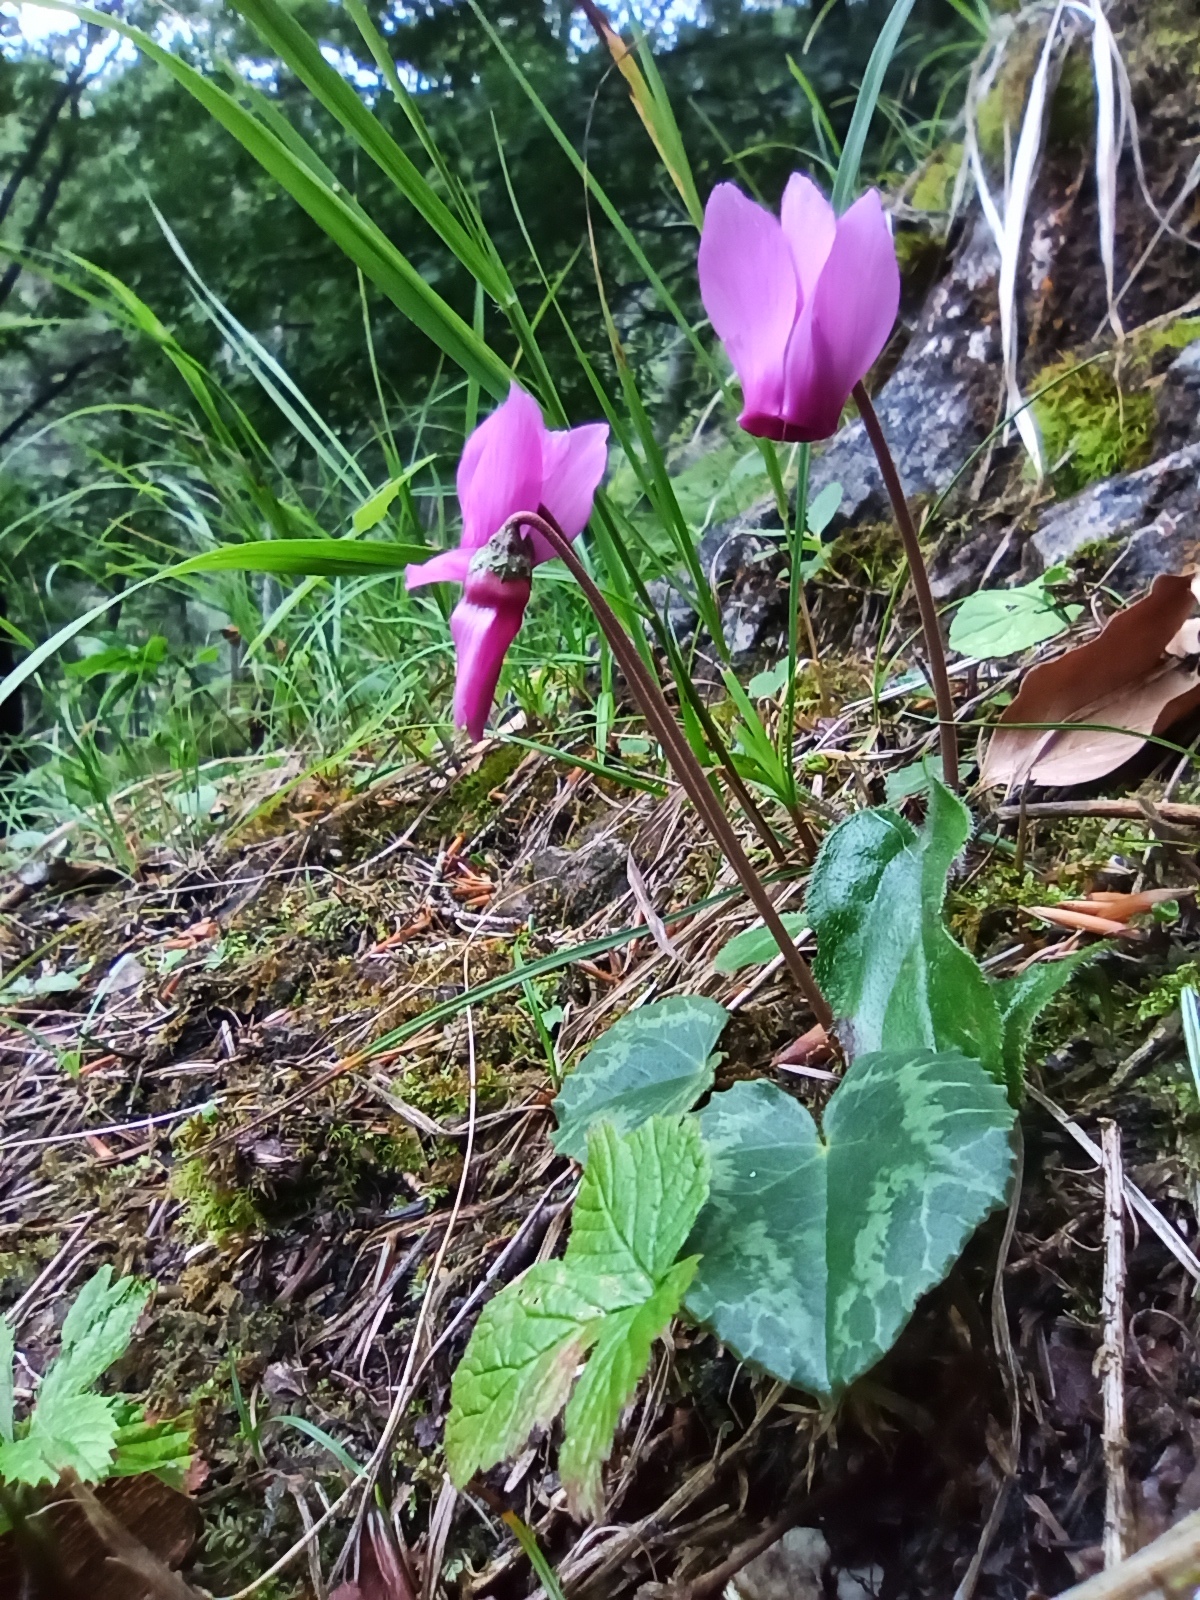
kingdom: Plantae
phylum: Tracheophyta
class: Magnoliopsida
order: Ericales
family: Primulaceae
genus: Cyclamen
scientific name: Cyclamen purpurascens
